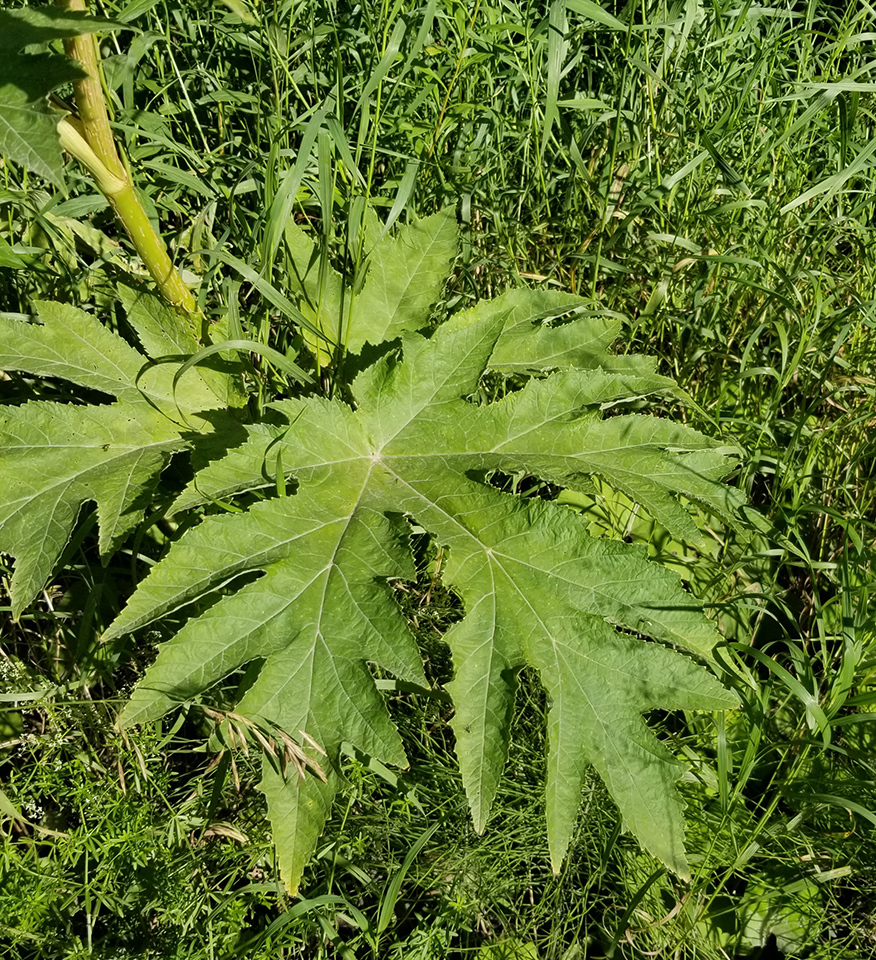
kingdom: Plantae
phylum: Tracheophyta
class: Magnoliopsida
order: Apiales
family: Apiaceae
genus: Heracleum
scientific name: Heracleum maximum
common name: American cow parsnip
